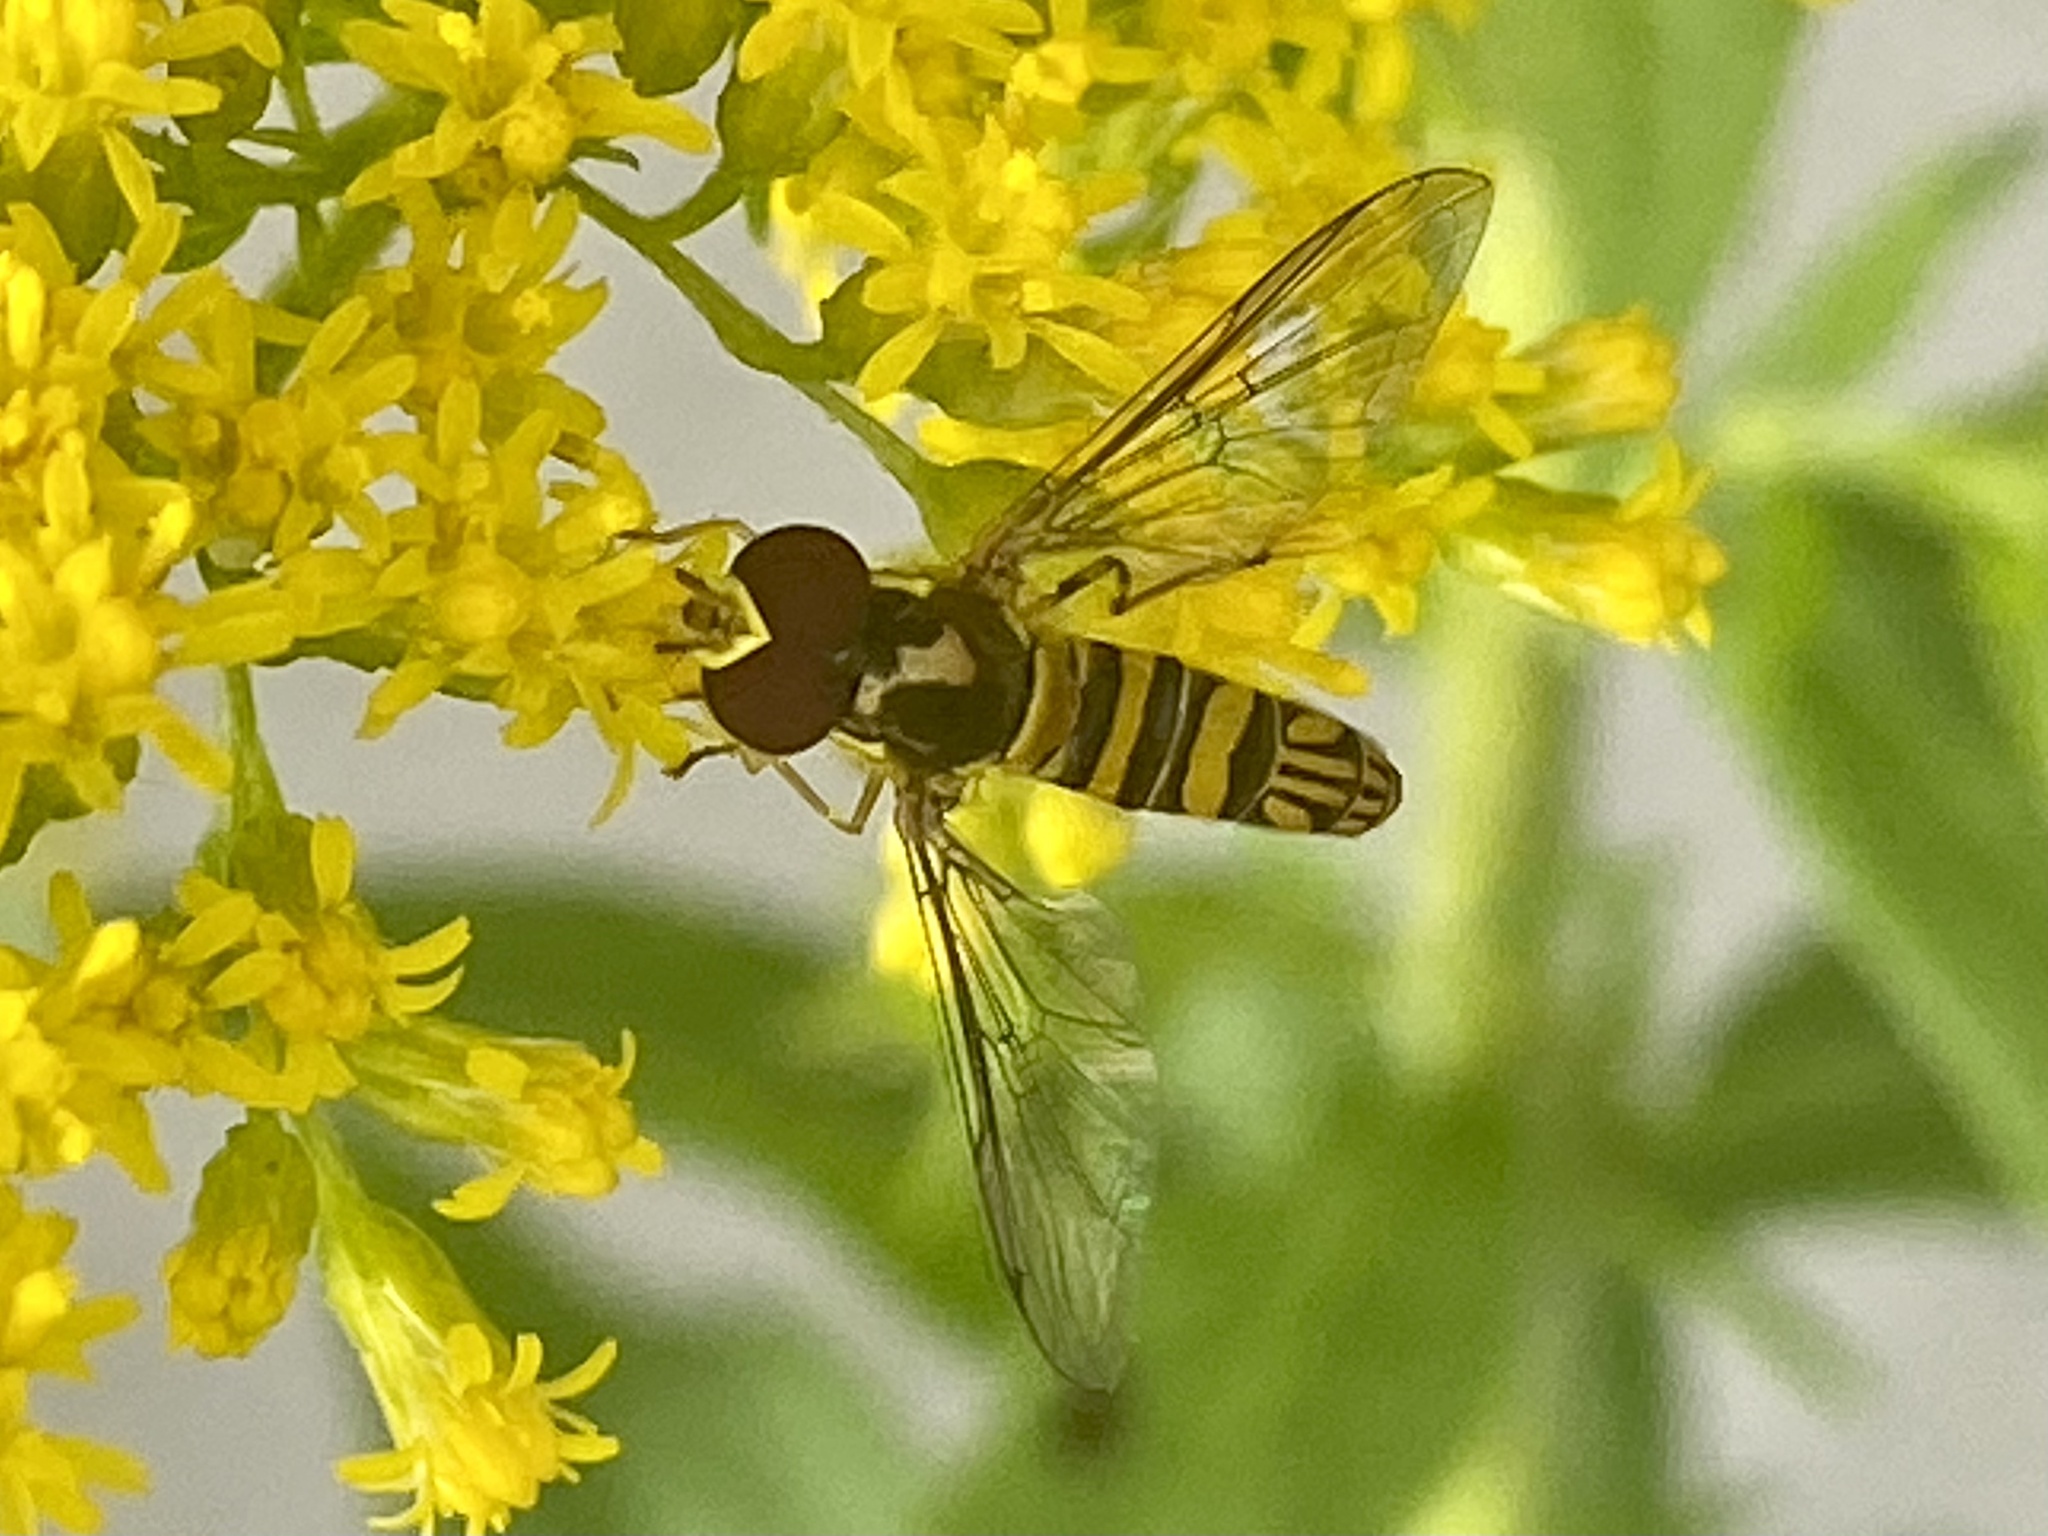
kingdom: Animalia
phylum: Arthropoda
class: Insecta
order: Diptera
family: Syrphidae
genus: Allograpta
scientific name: Allograpta obliqua
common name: Common oblique syrphid
